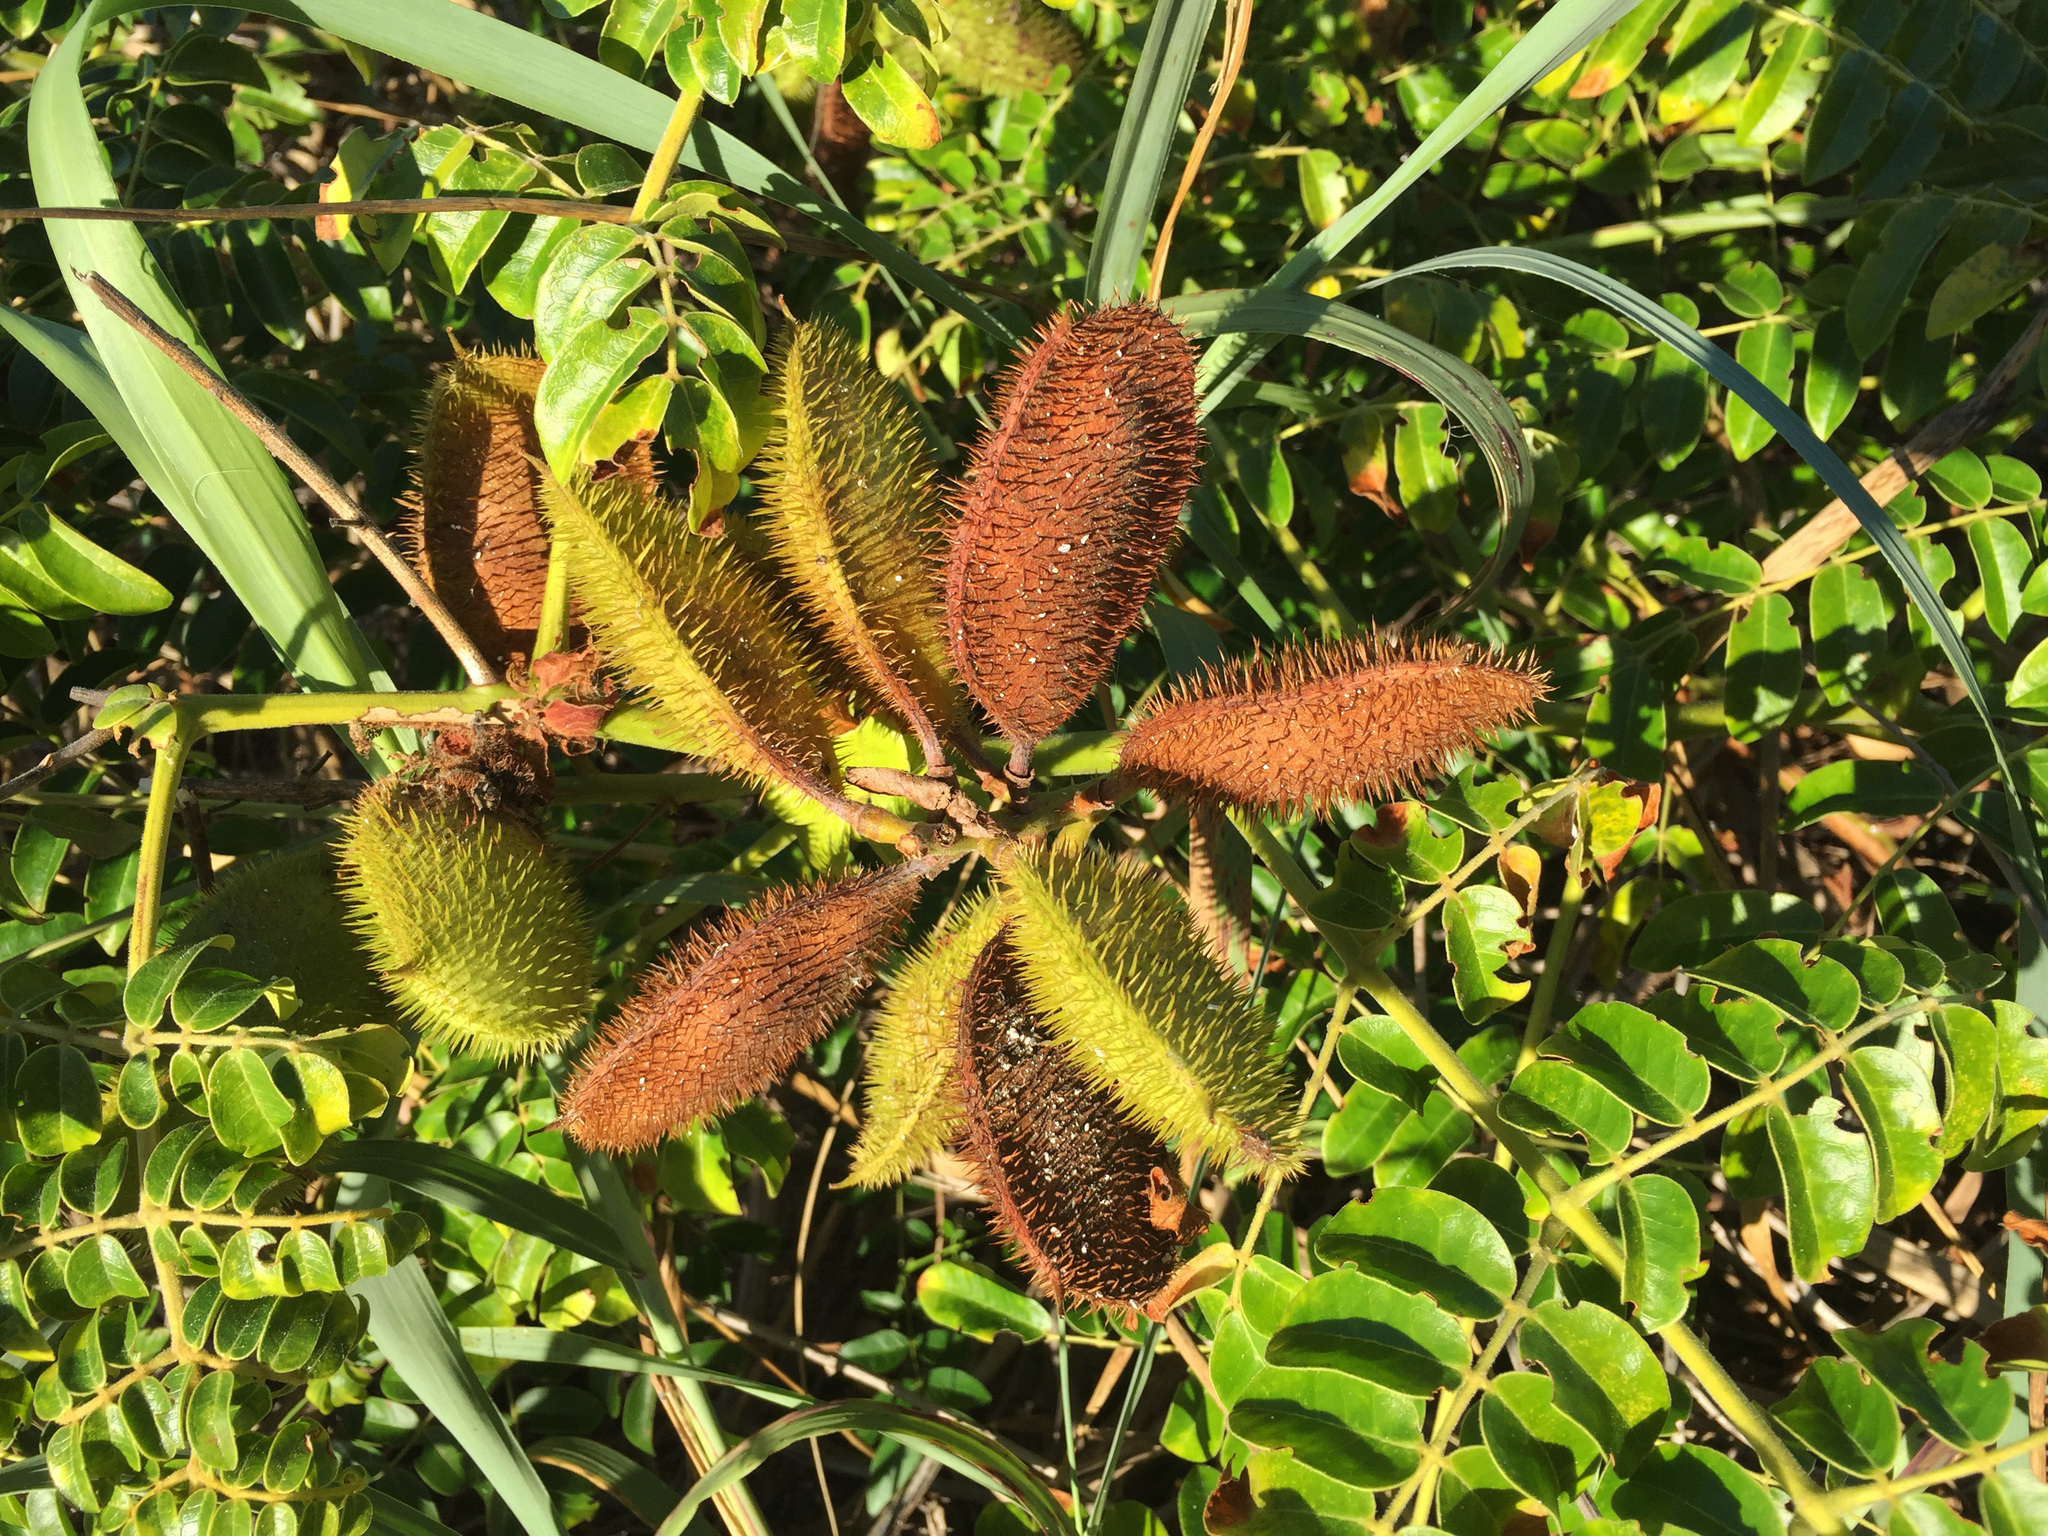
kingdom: Plantae
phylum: Tracheophyta
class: Magnoliopsida
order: Fabales
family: Fabaceae
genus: Guilandina
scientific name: Guilandina bonduc
